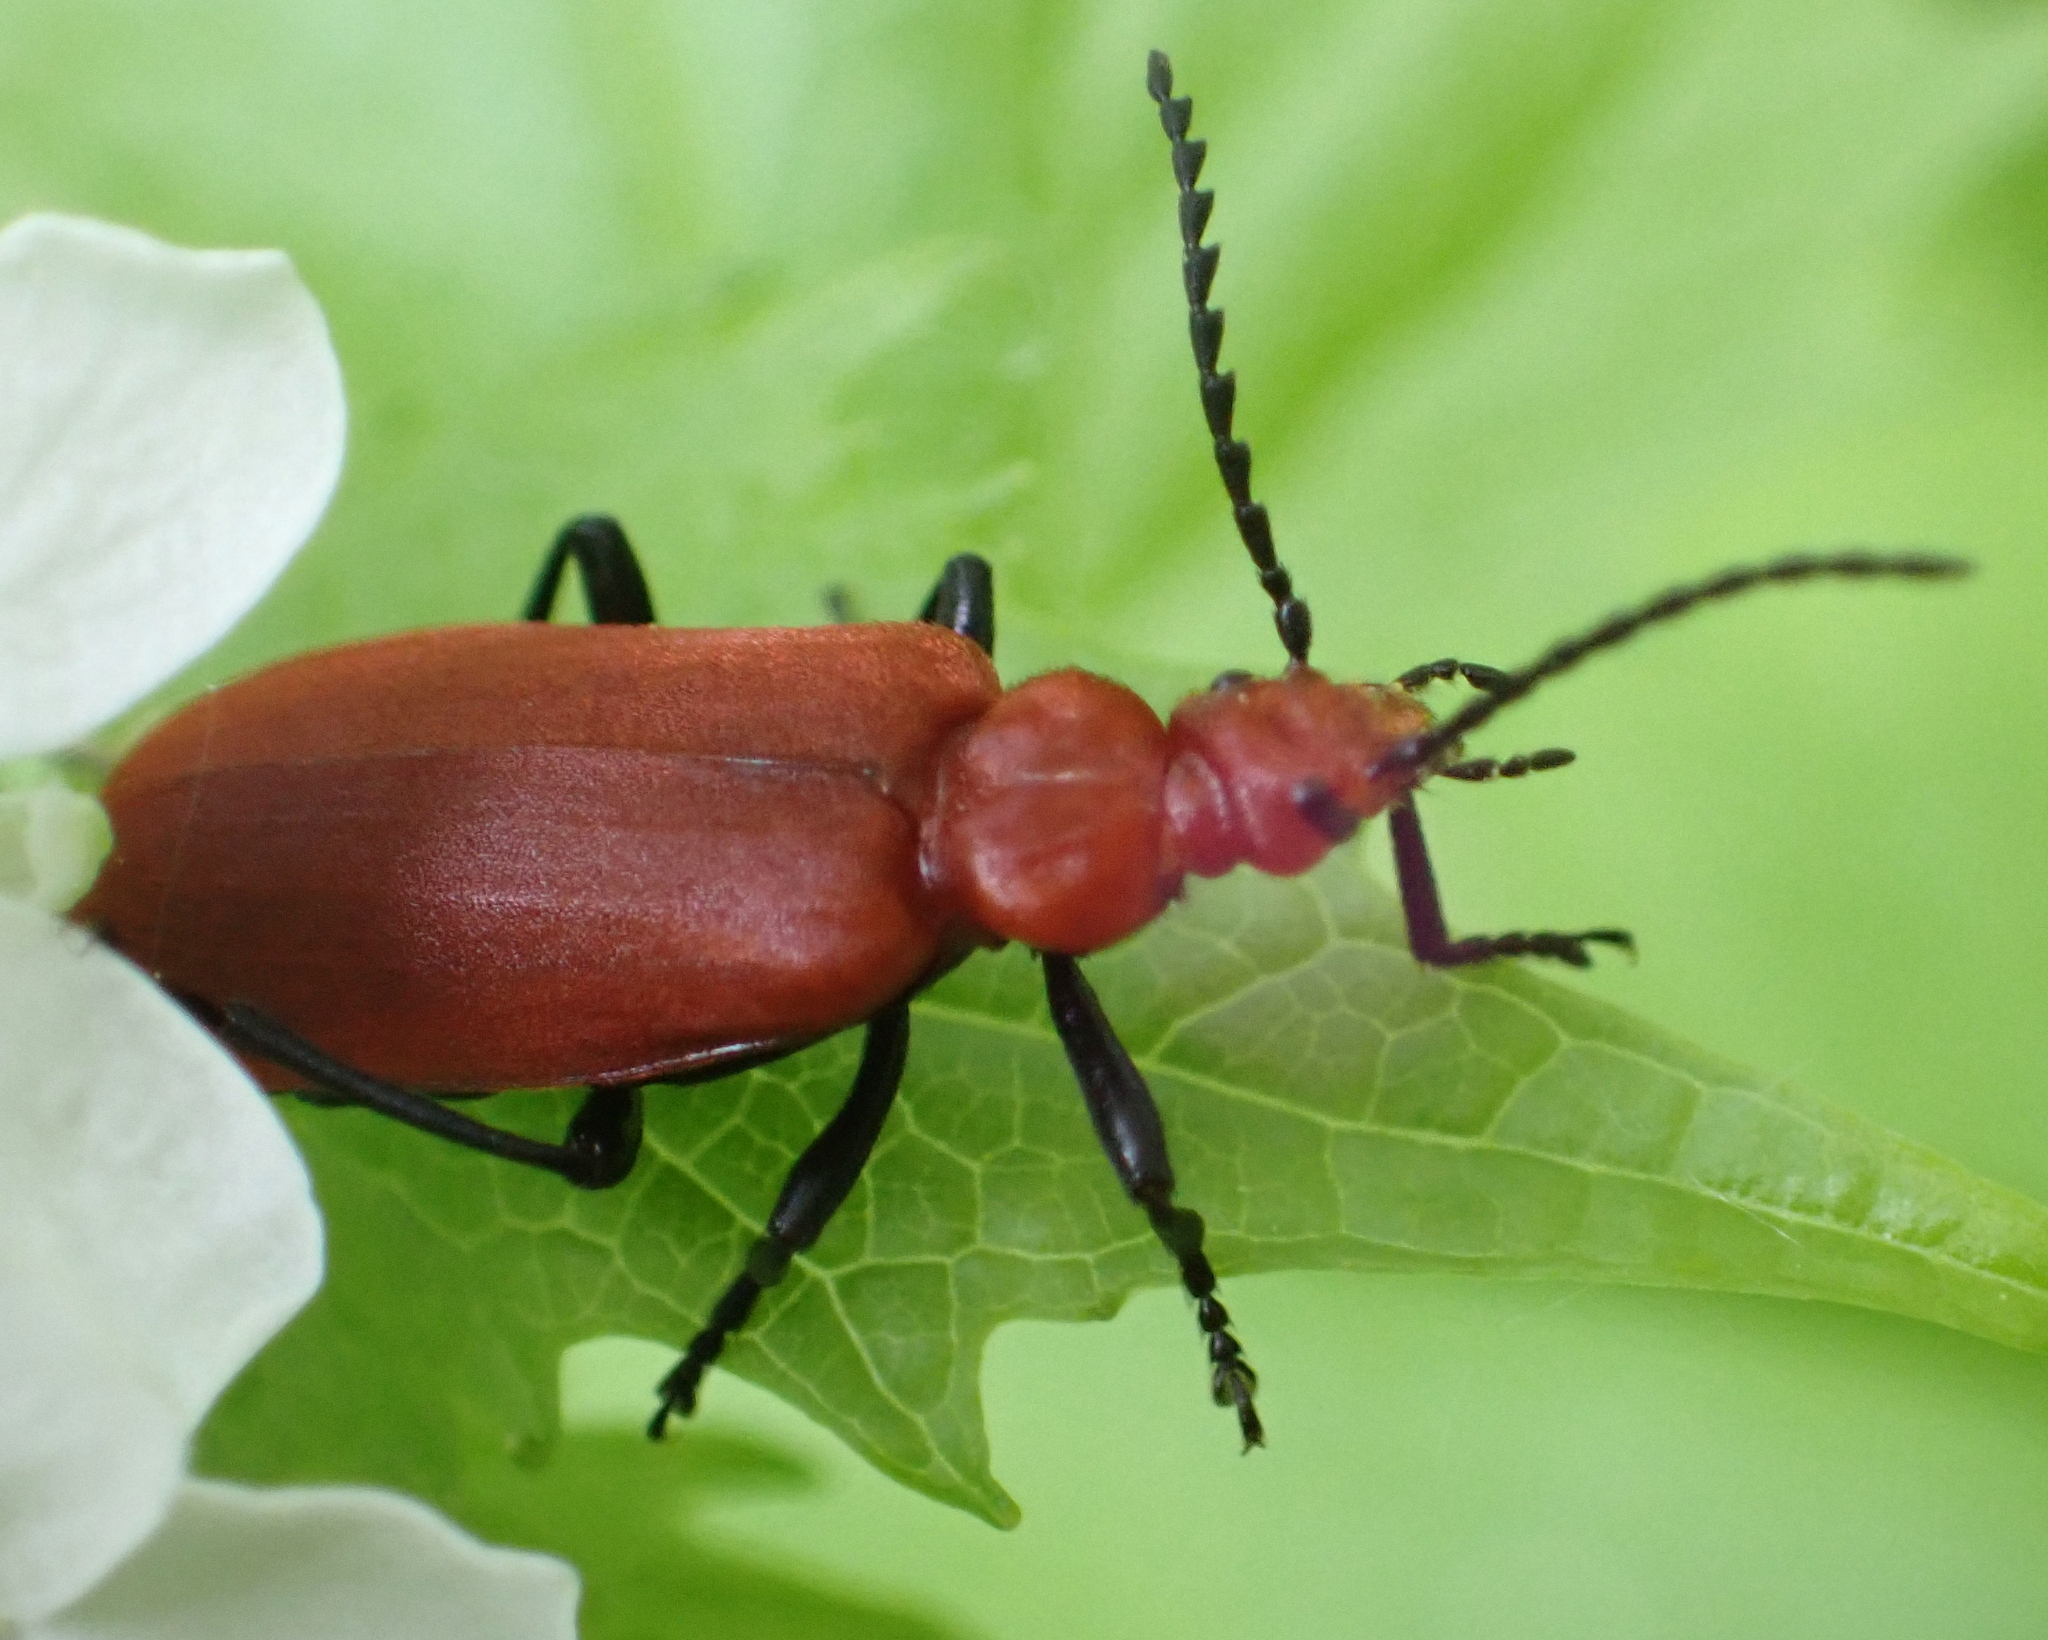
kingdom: Animalia
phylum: Arthropoda
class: Insecta
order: Coleoptera
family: Pyrochroidae
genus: Pyrochroa
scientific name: Pyrochroa serraticornis
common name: Red-headed cardinal beetle
